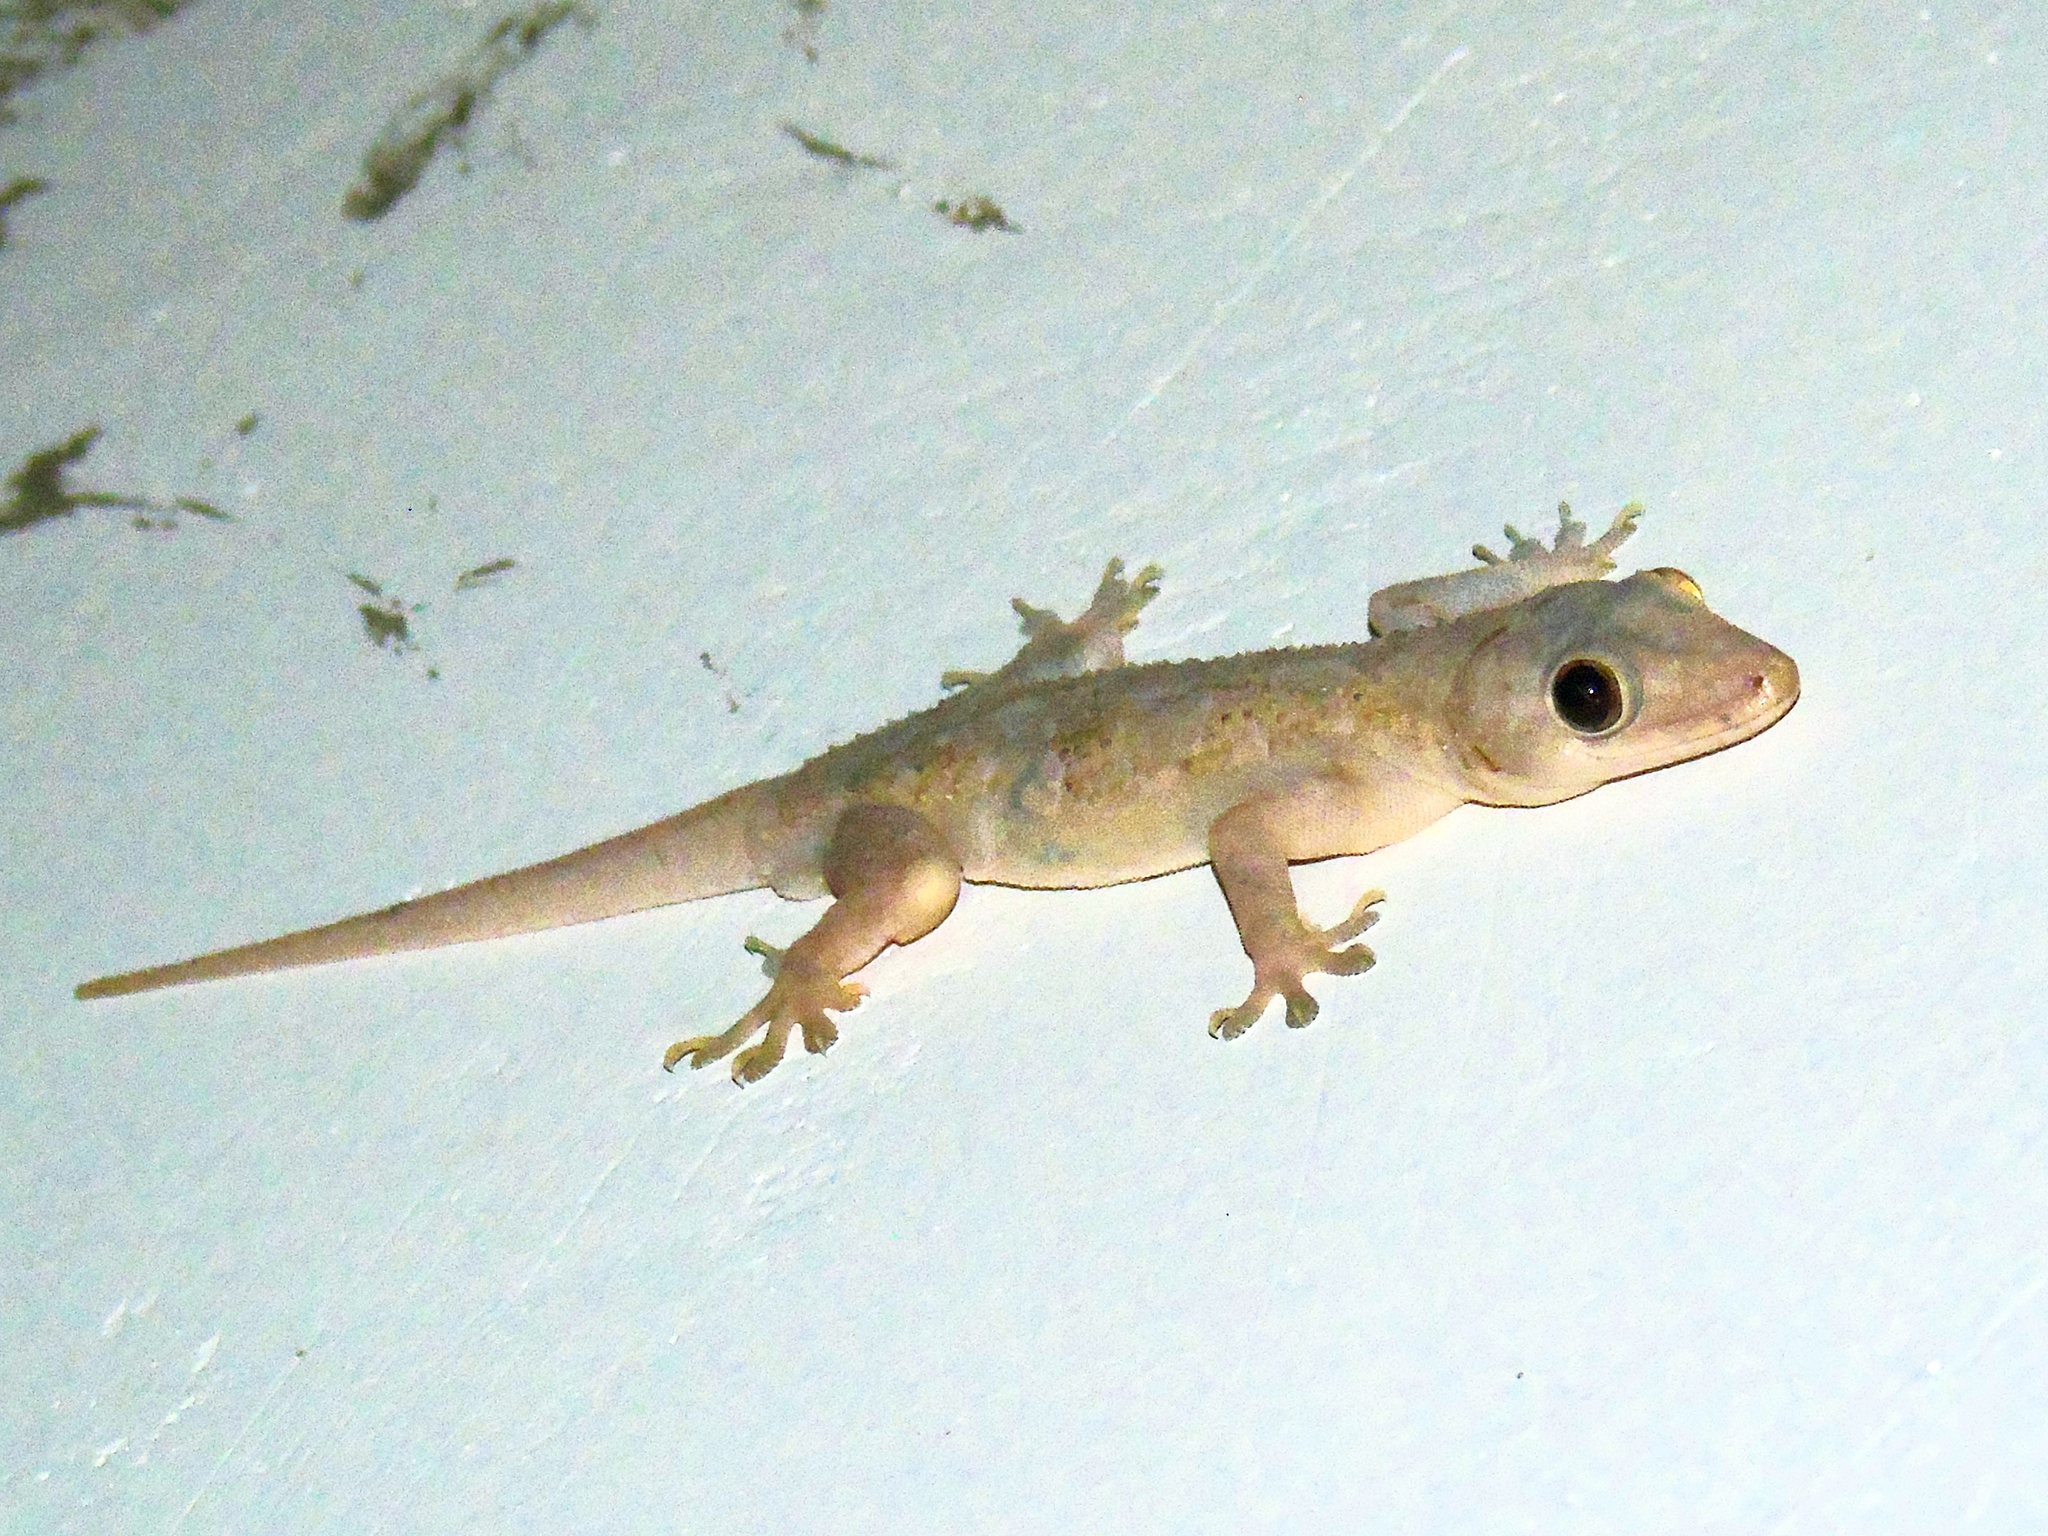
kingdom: Animalia
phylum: Chordata
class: Squamata
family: Gekkonidae
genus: Hemidactylus
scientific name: Hemidactylus mabouia
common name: House gecko
